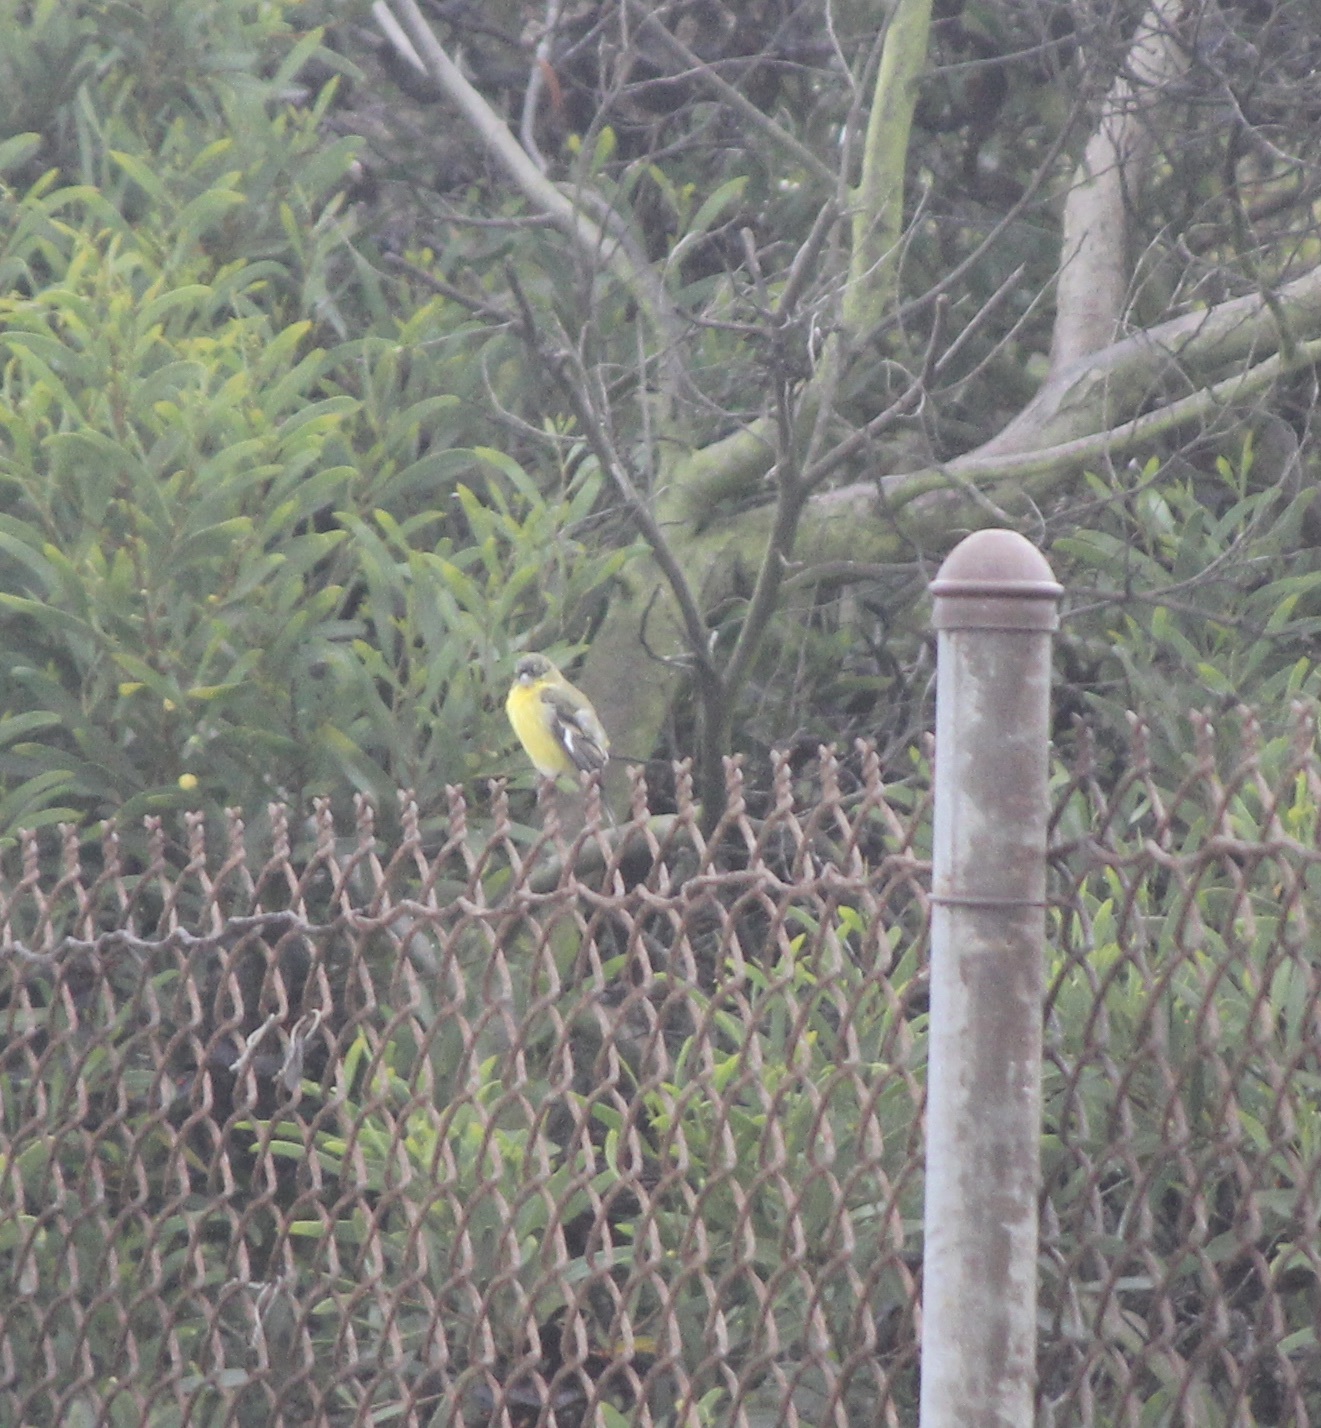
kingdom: Animalia
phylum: Chordata
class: Aves
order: Passeriformes
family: Fringillidae
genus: Spinus
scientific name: Spinus psaltria
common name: Lesser goldfinch
